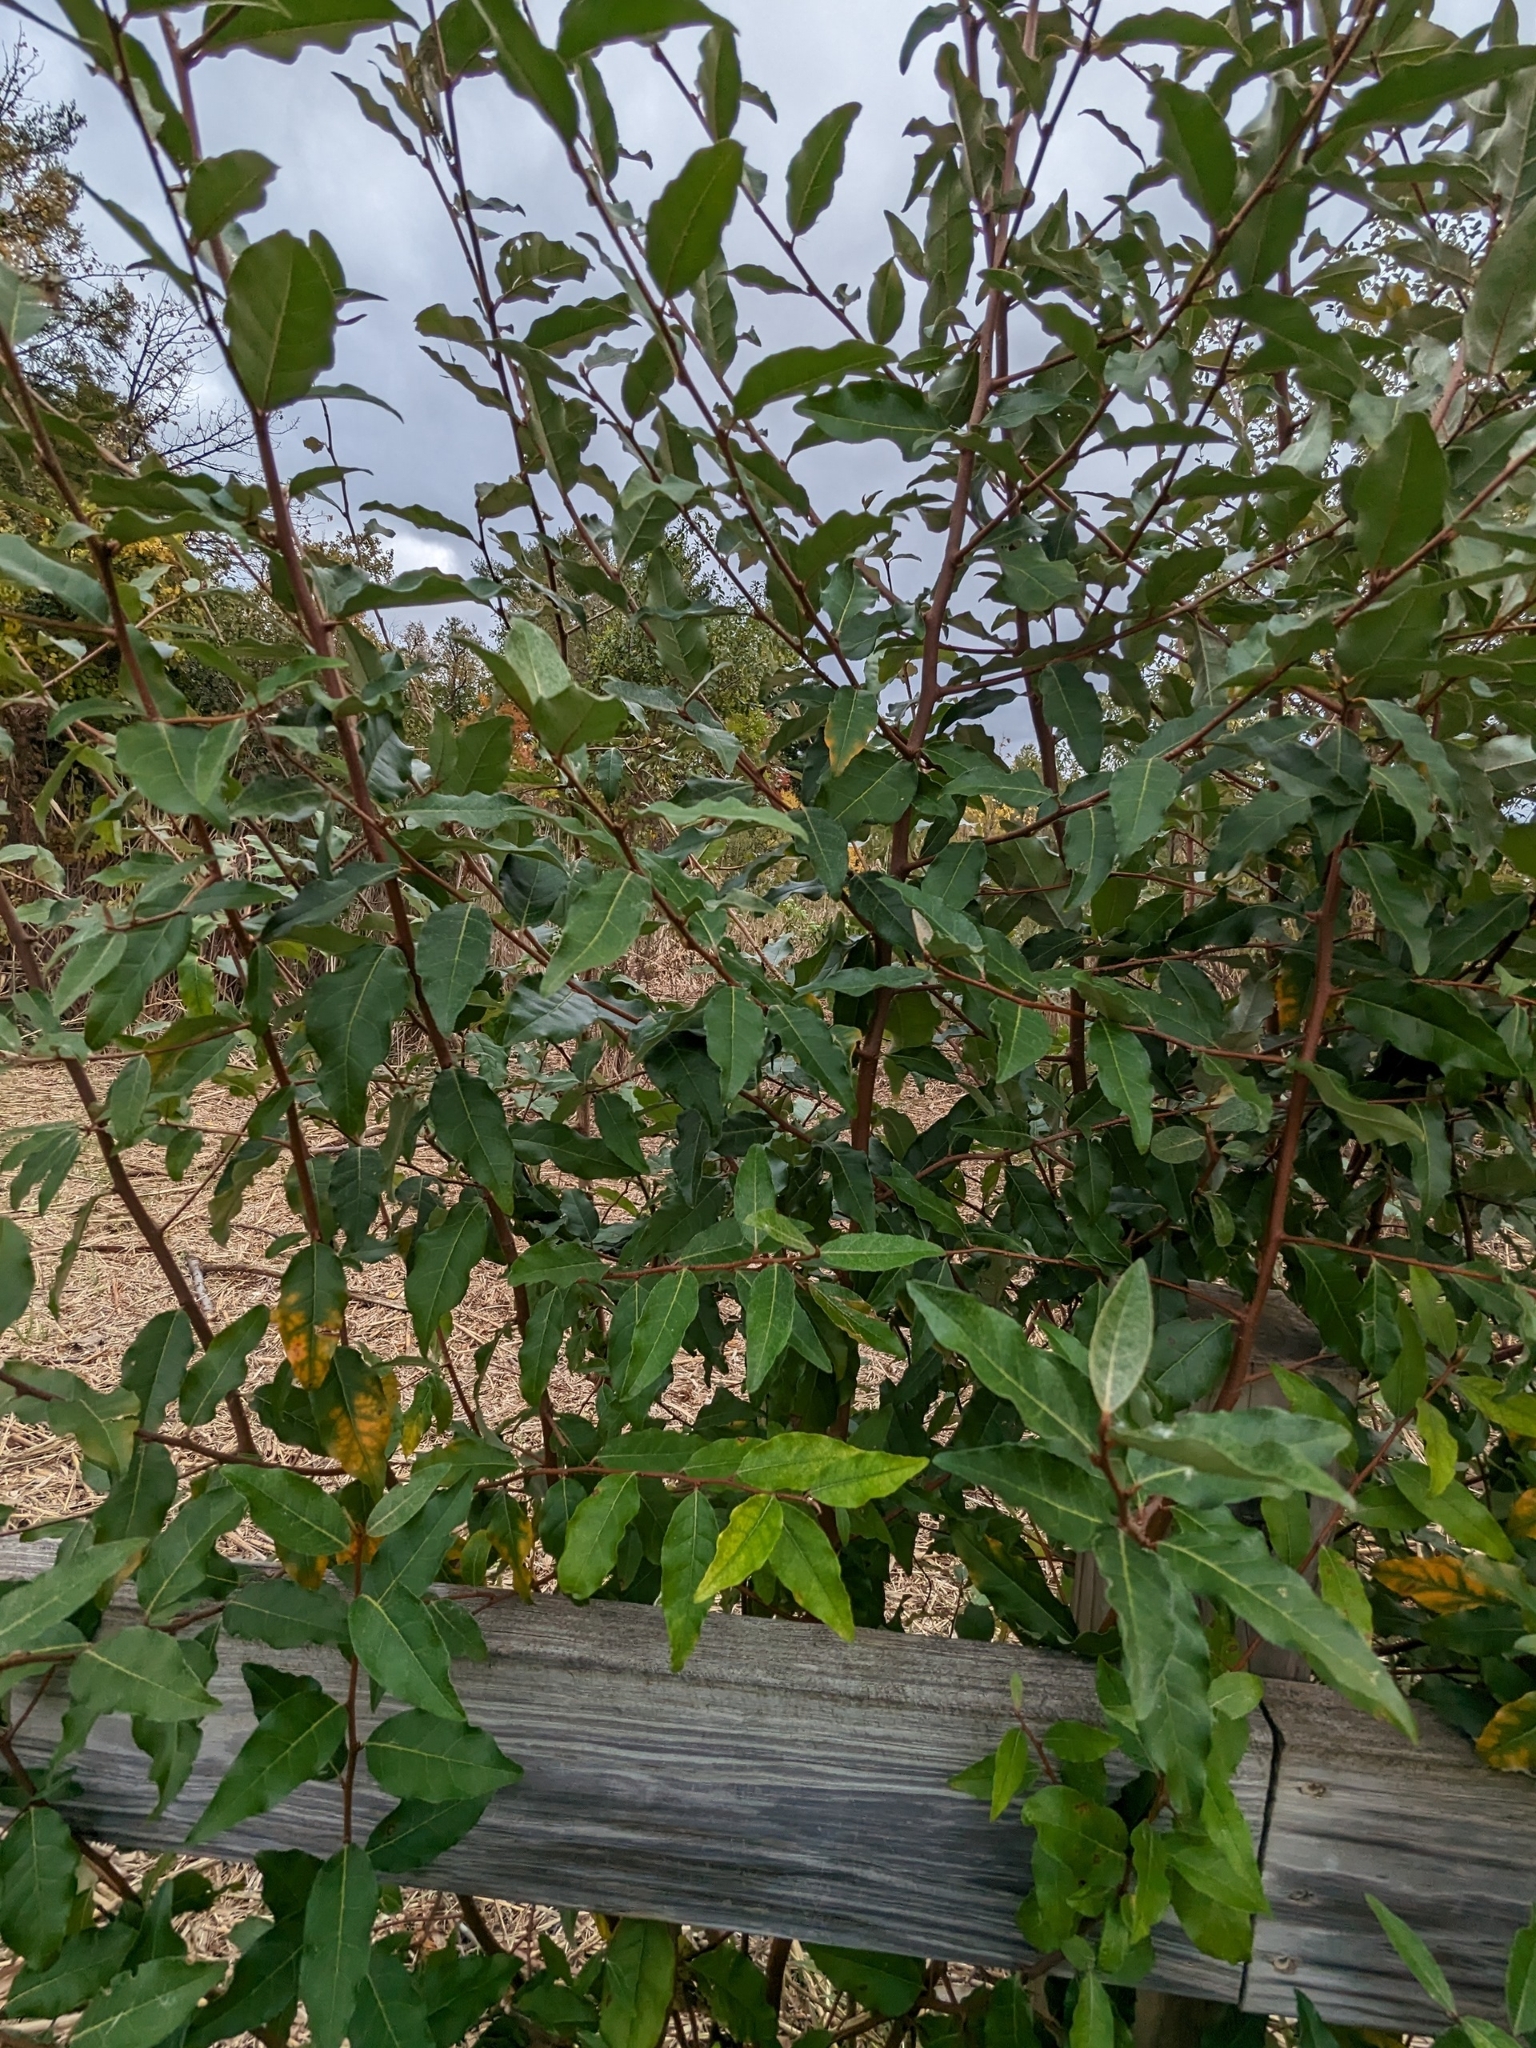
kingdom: Plantae
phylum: Tracheophyta
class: Magnoliopsida
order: Rosales
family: Elaeagnaceae
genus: Elaeagnus
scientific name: Elaeagnus umbellata
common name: Autumn olive
